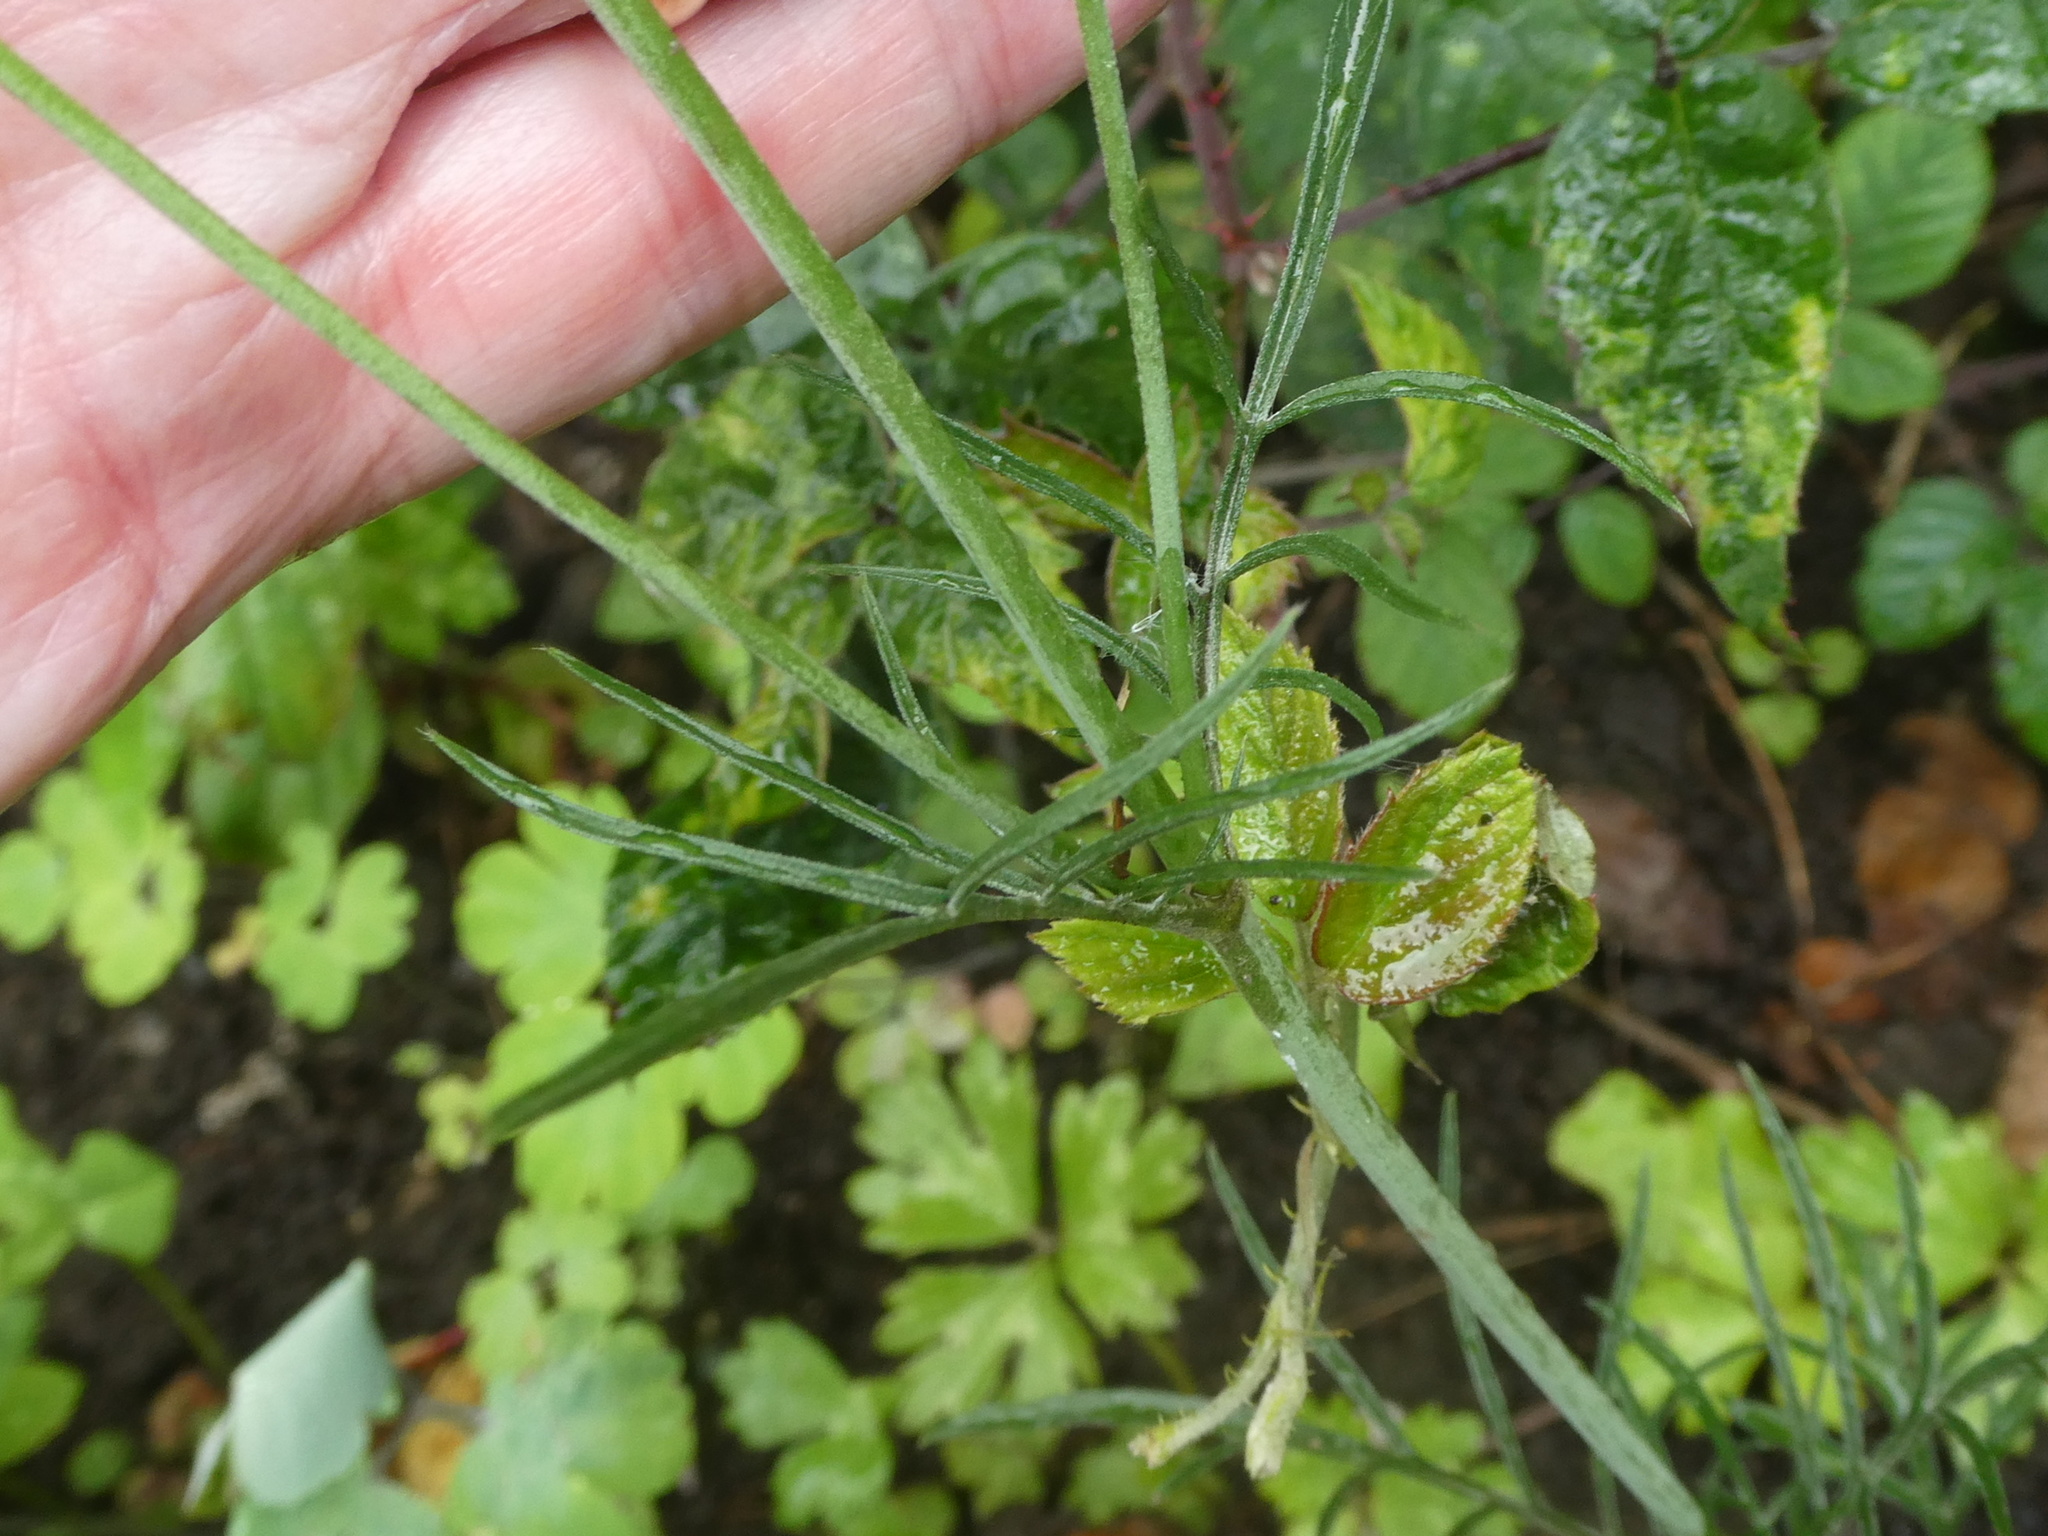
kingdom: Plantae
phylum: Tracheophyta
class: Magnoliopsida
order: Dipsacales
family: Caprifoliaceae
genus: Scabiosa
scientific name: Scabiosa columbaria
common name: Small scabious
